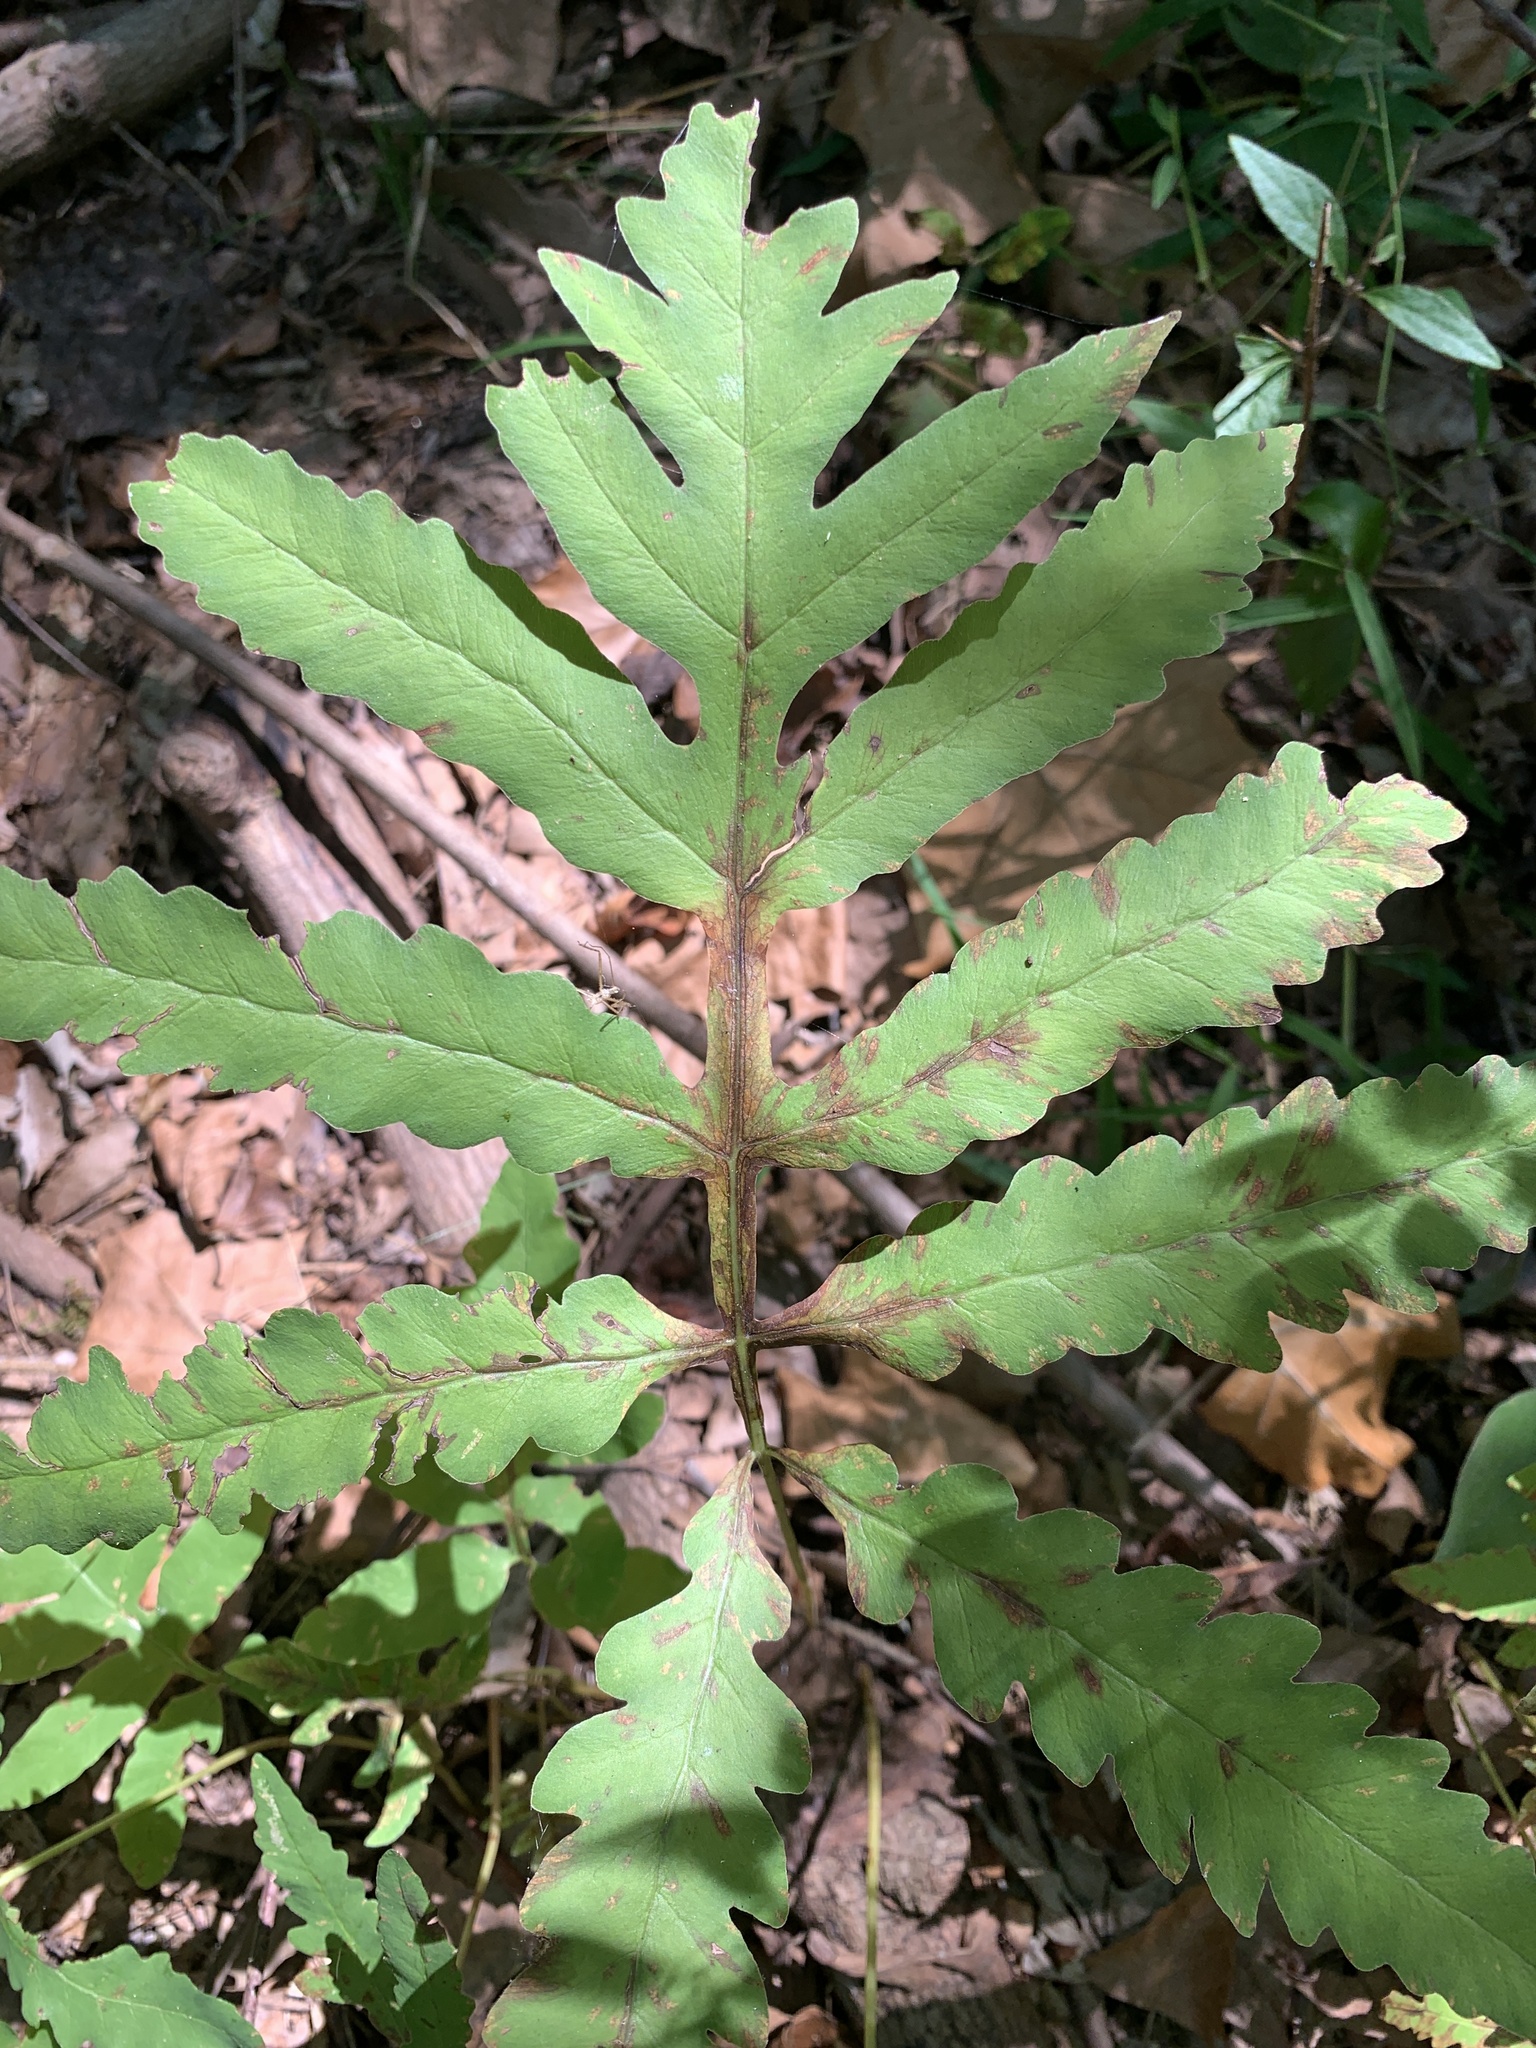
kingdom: Plantae
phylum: Tracheophyta
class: Polypodiopsida
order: Polypodiales
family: Onocleaceae
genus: Onoclea
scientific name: Onoclea sensibilis
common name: Sensitive fern
